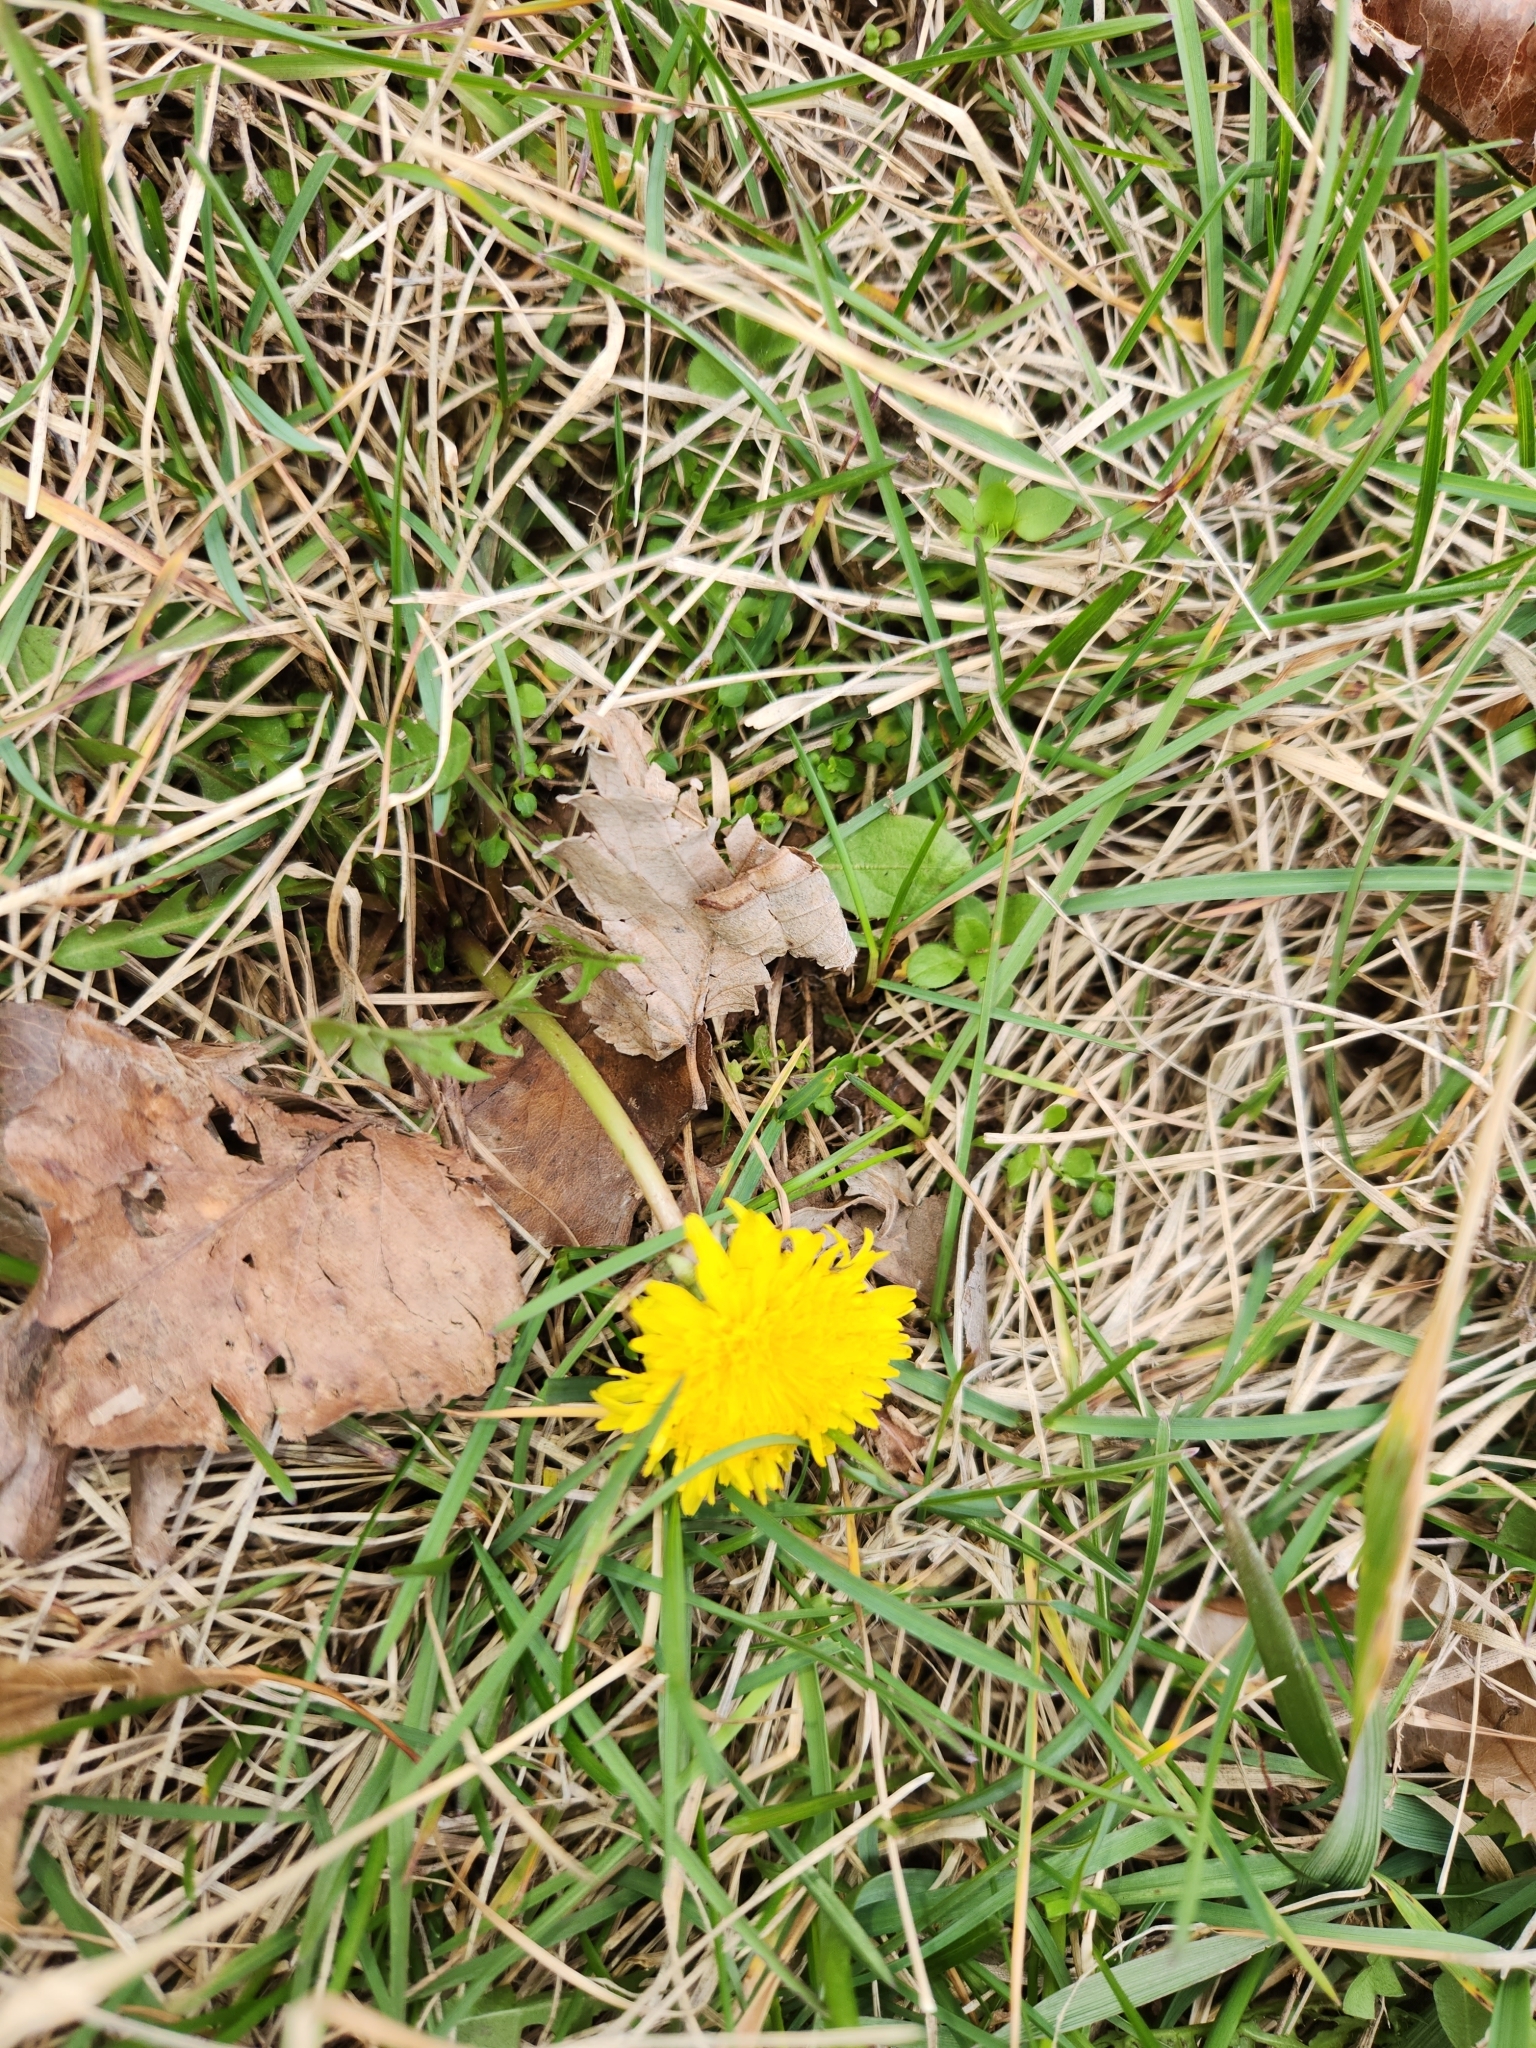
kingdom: Plantae
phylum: Tracheophyta
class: Magnoliopsida
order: Asterales
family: Asteraceae
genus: Taraxacum
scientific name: Taraxacum officinale
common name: Common dandelion
